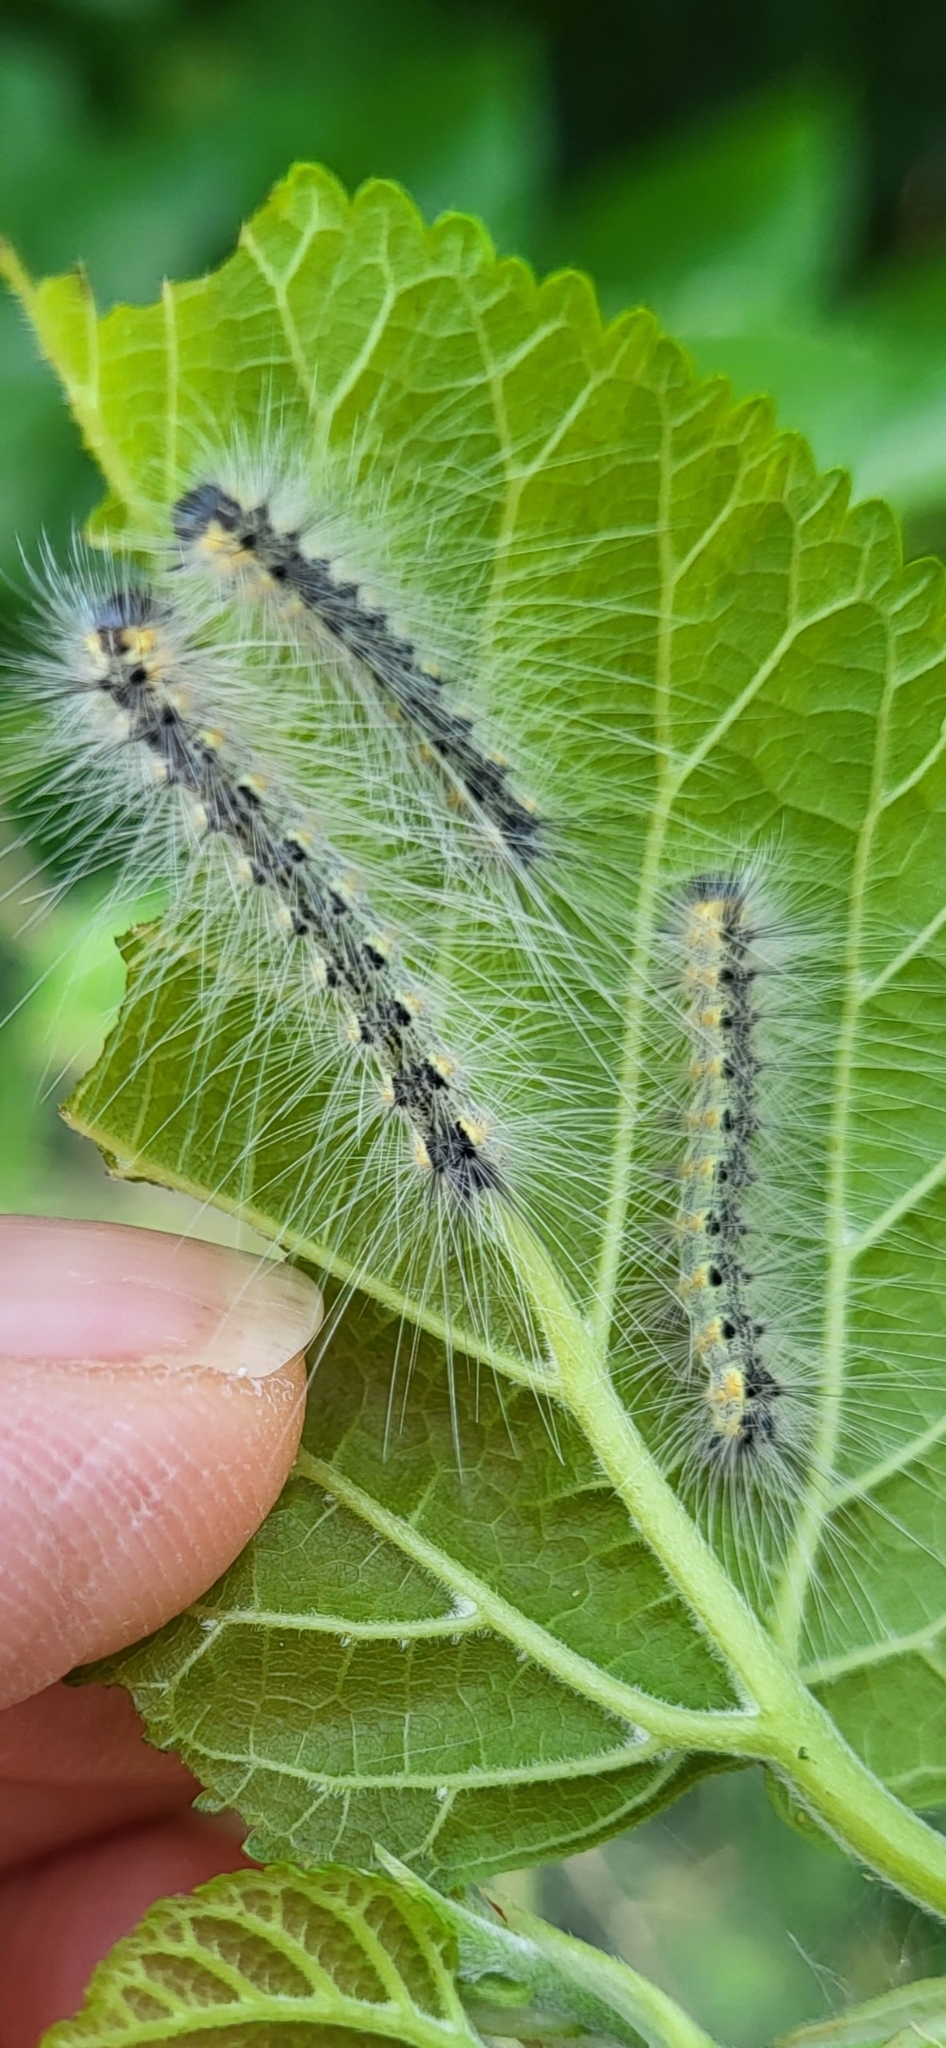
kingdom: Animalia
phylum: Arthropoda
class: Insecta
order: Lepidoptera
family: Erebidae
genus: Hyphantria
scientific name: Hyphantria cunea
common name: American white moth
